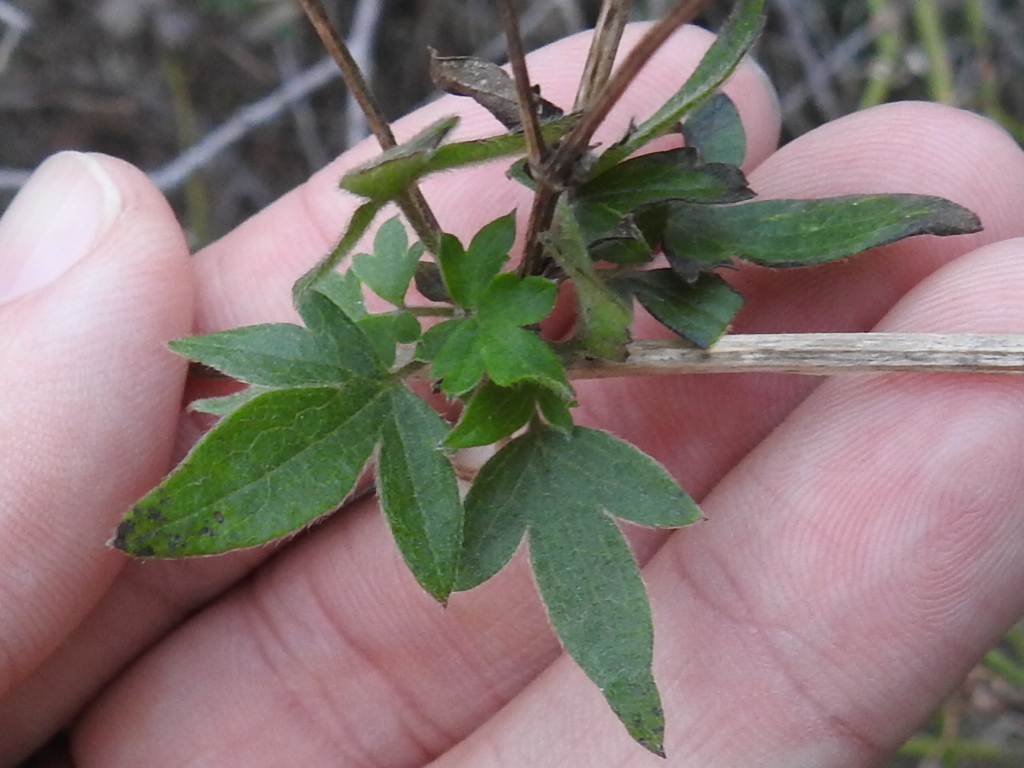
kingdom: Plantae
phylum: Tracheophyta
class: Magnoliopsida
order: Ranunculales
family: Ranunculaceae
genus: Clematis
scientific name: Clematis drummondii
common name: Texas virgin's bower
